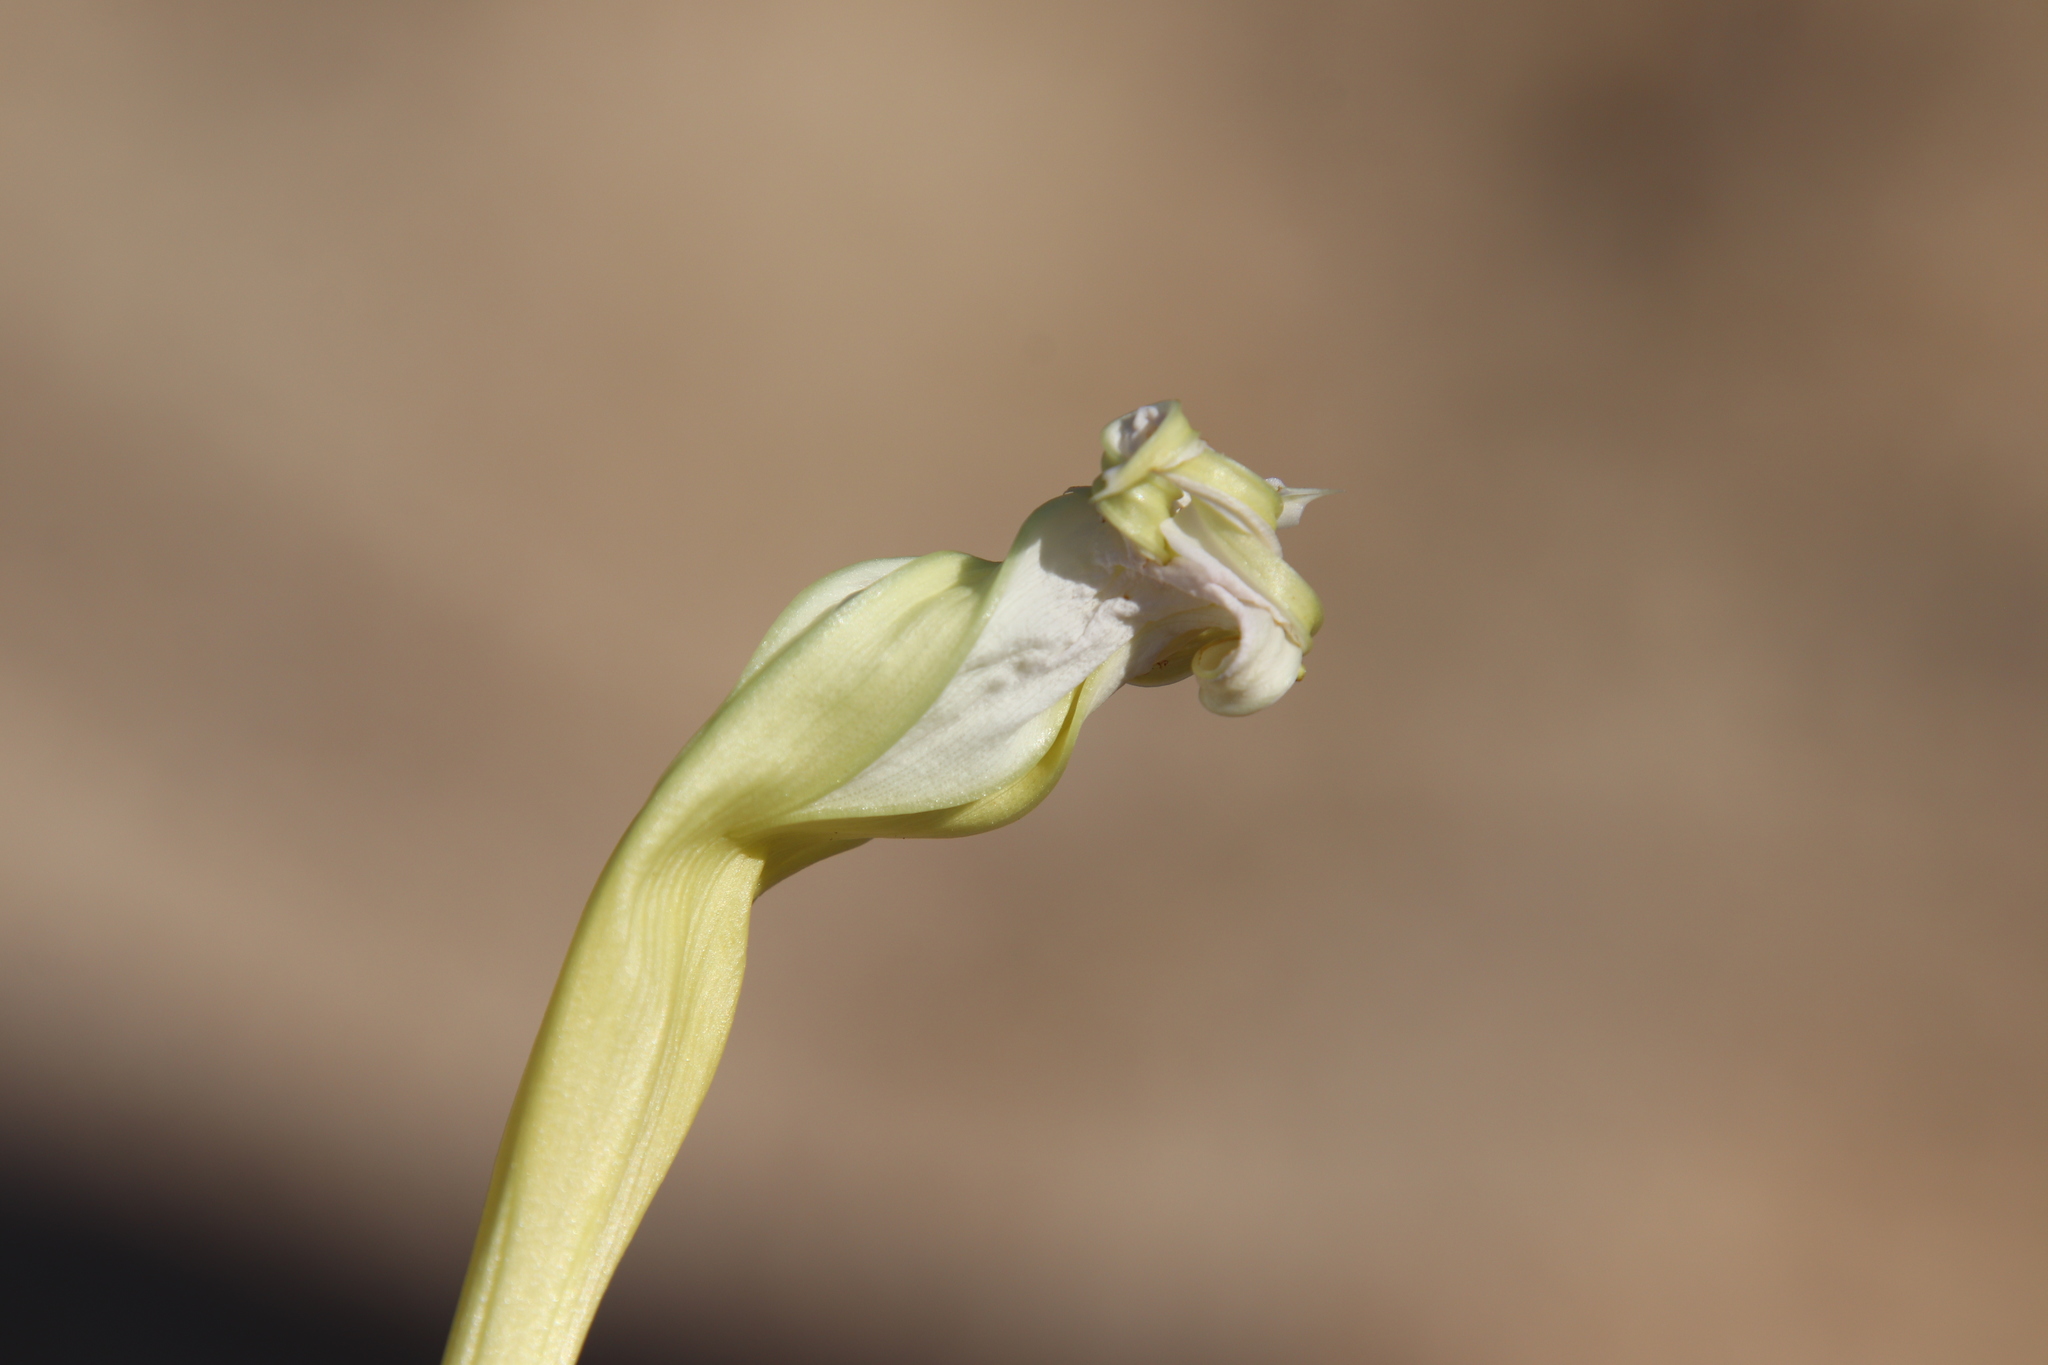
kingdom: Plantae
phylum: Tracheophyta
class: Magnoliopsida
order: Solanales
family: Convolvulaceae
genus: Ipomoea
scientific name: Ipomoea tastensis
